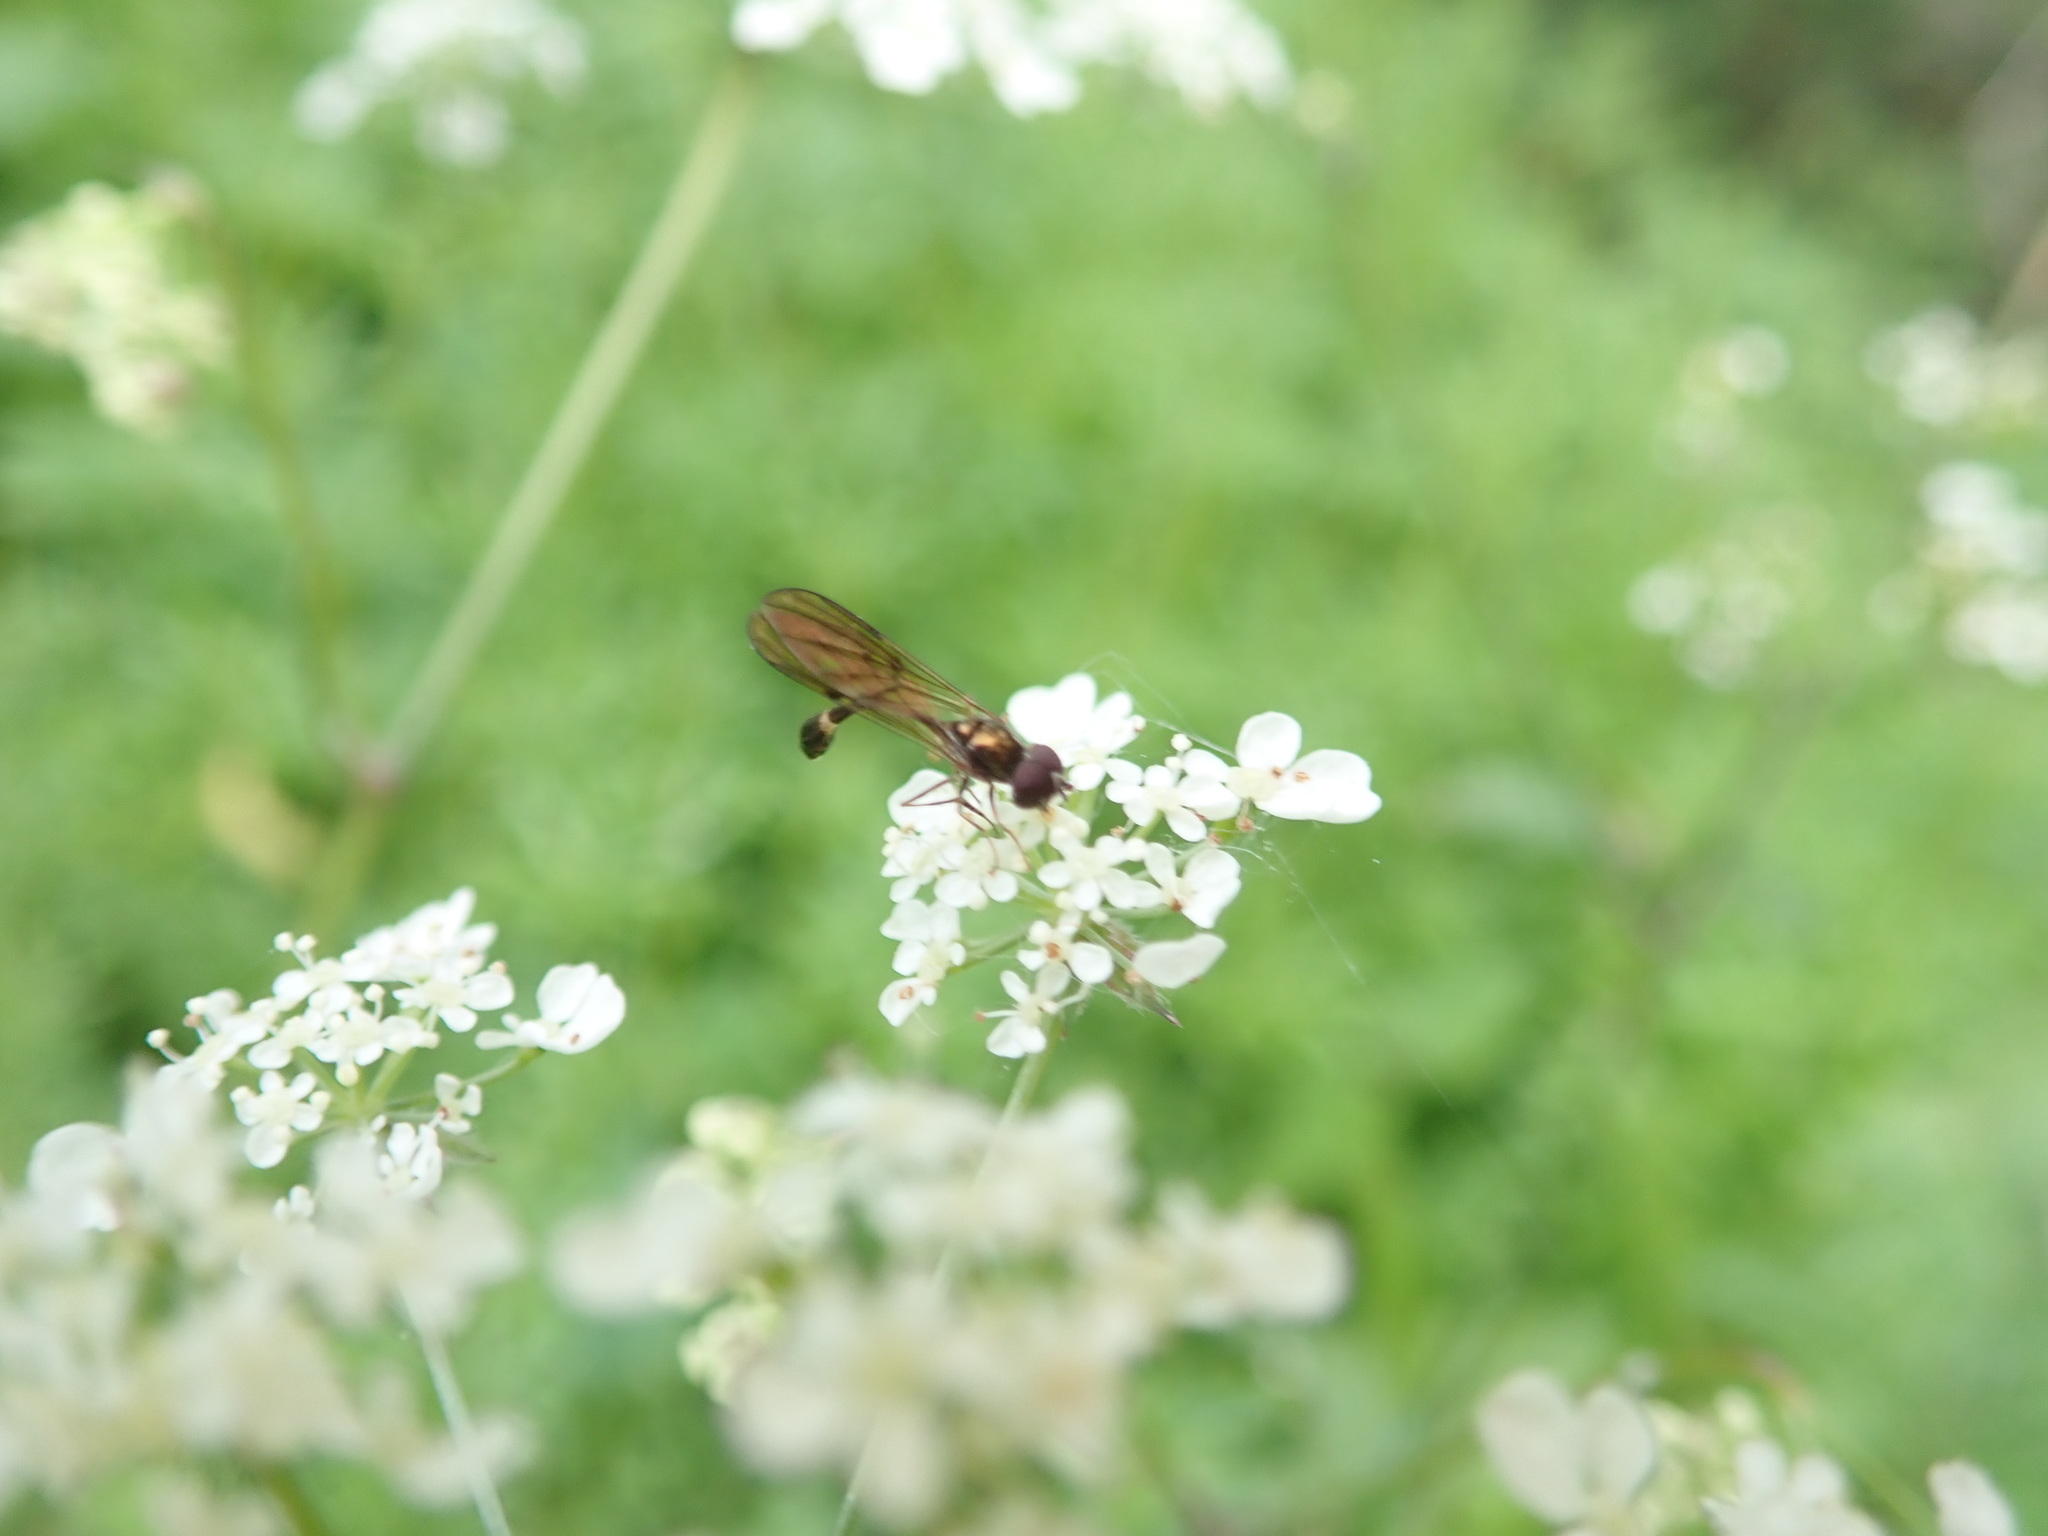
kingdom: Animalia
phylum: Arthropoda
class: Insecta
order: Diptera
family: Syrphidae
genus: Baccha
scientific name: Baccha elongata
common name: Common dainty
